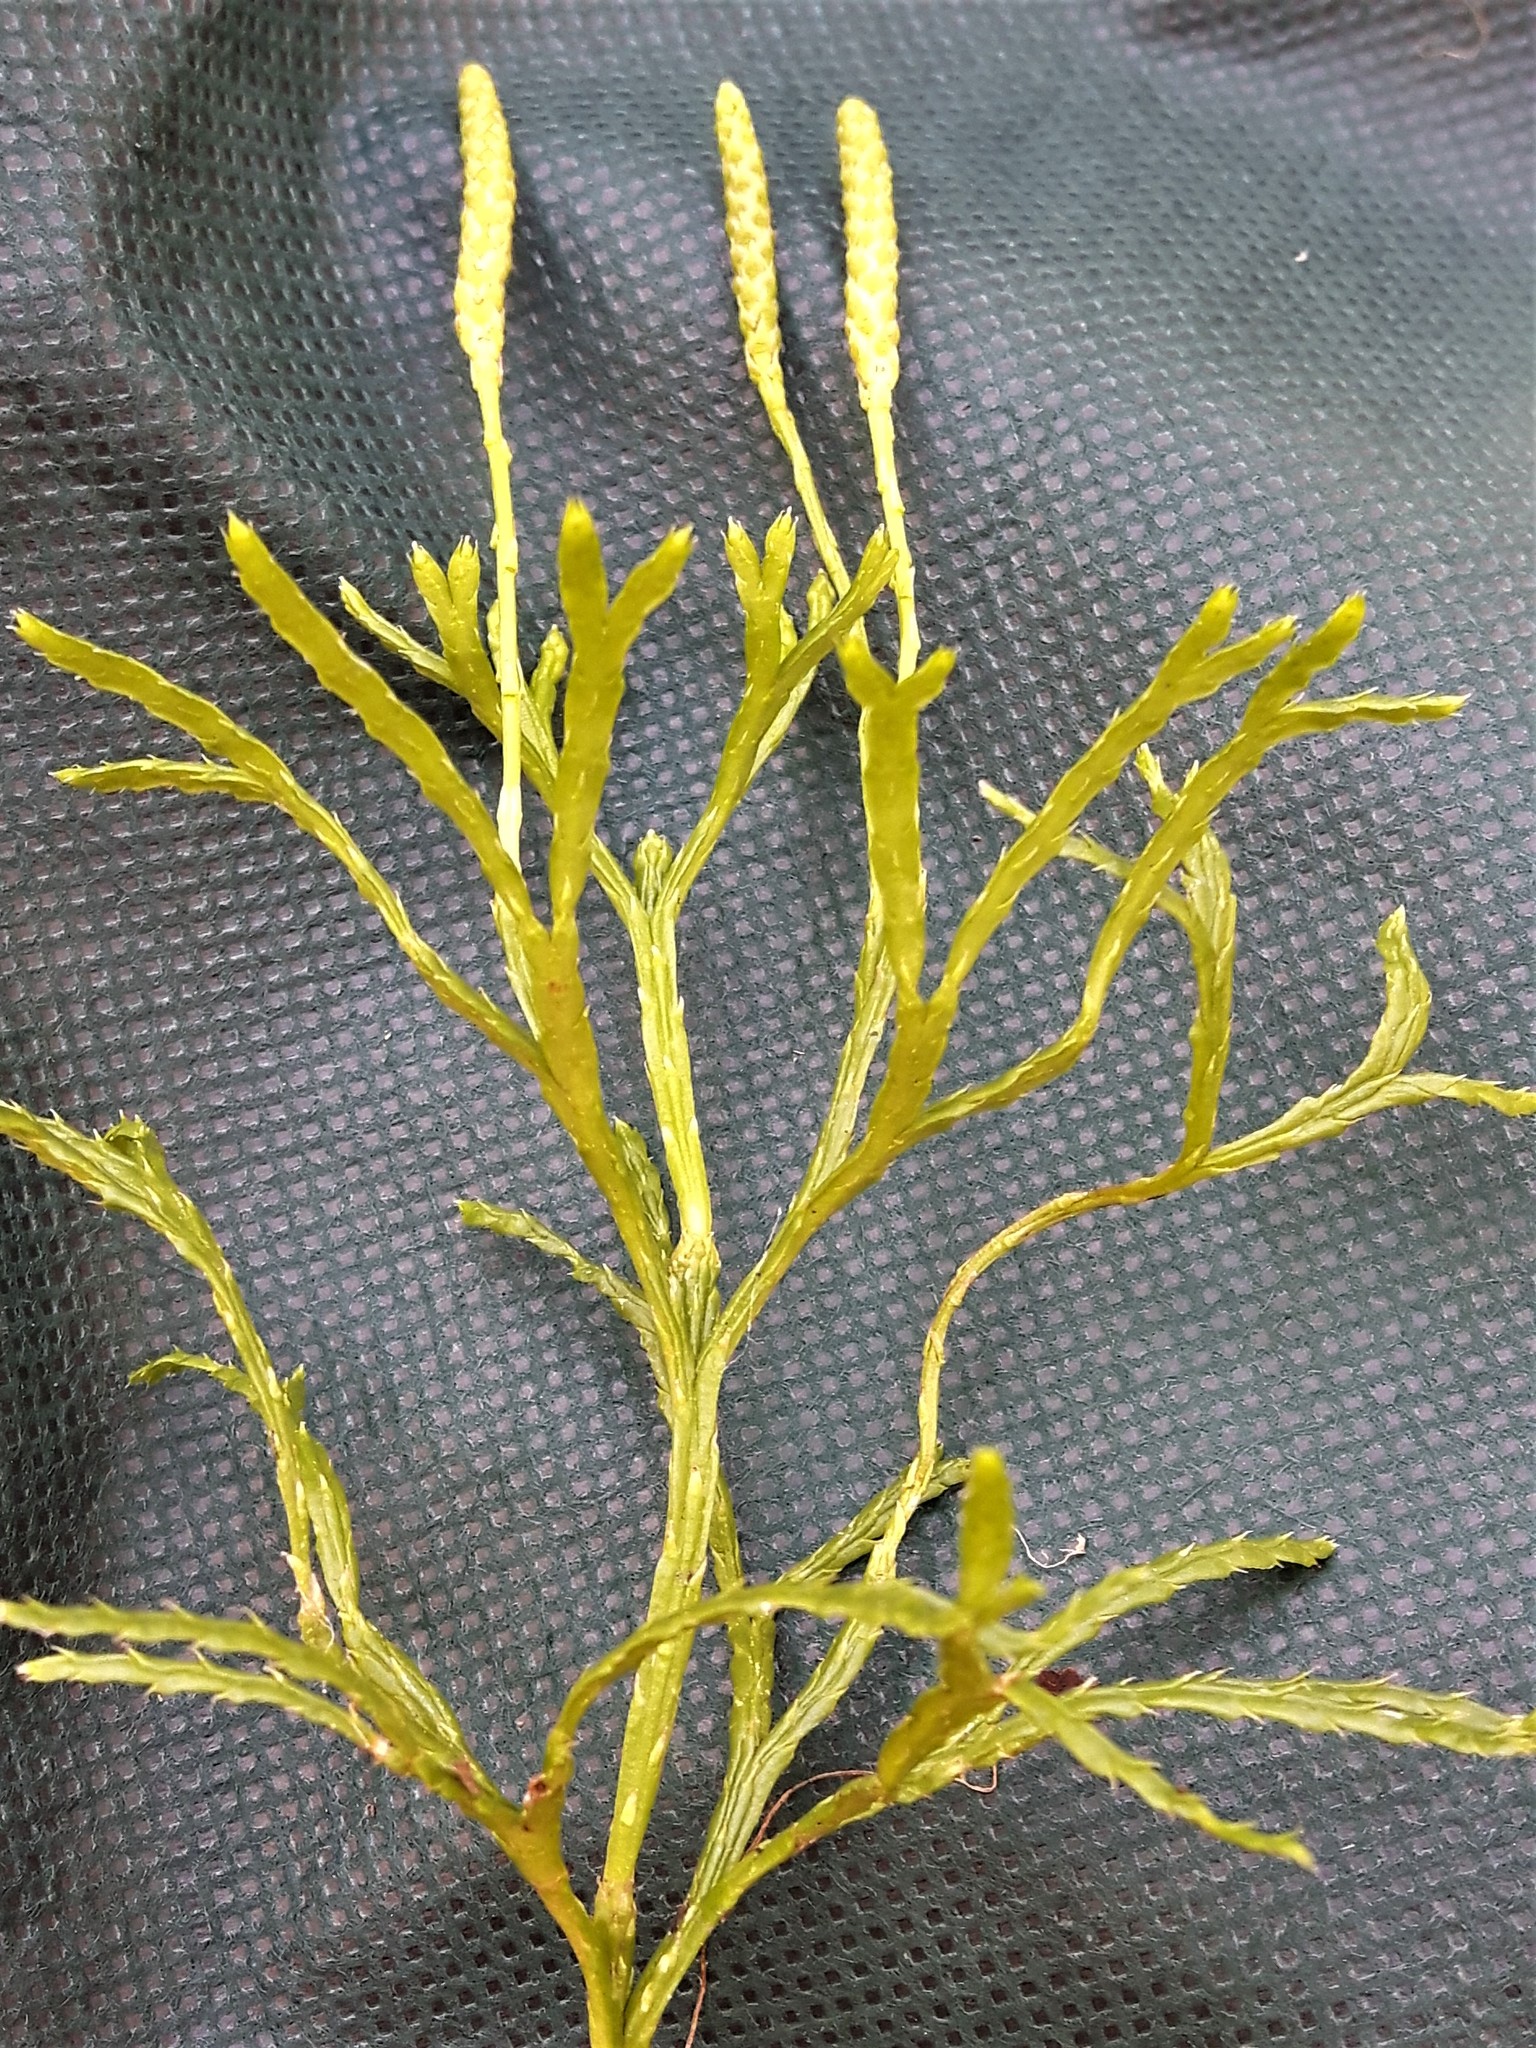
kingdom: Plantae
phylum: Tracheophyta
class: Lycopodiopsida
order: Lycopodiales
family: Lycopodiaceae
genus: Diphasiastrum
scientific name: Diphasiastrum complanatum
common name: Northern running-pine
